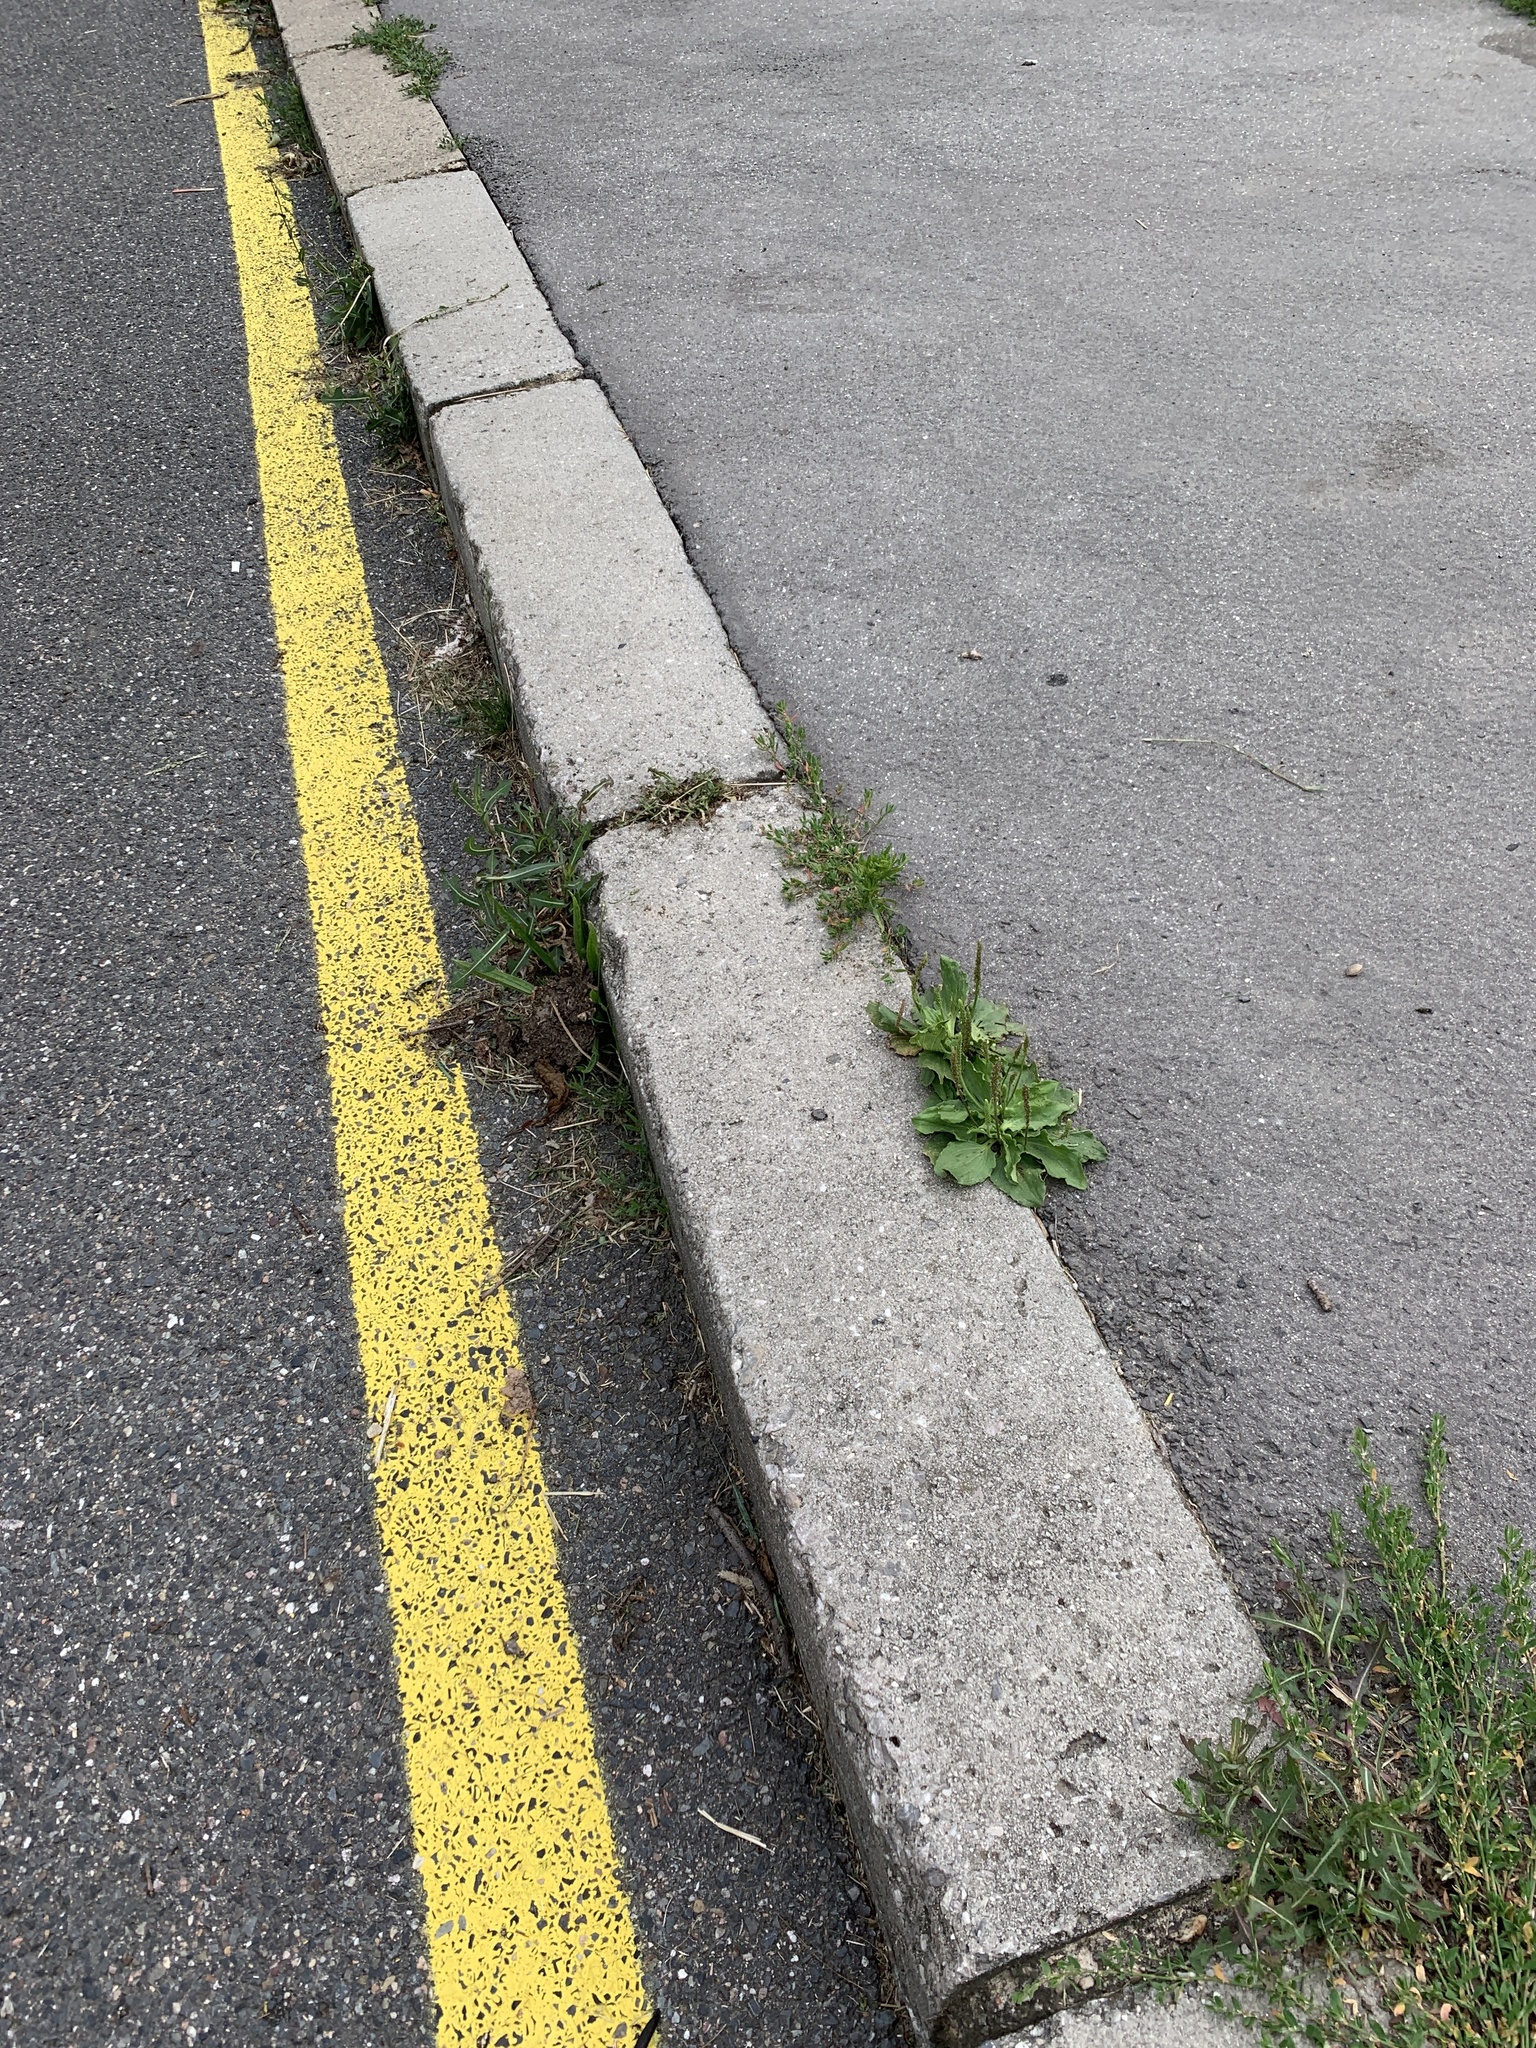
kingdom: Plantae
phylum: Tracheophyta
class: Magnoliopsida
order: Lamiales
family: Plantaginaceae
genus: Plantago
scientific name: Plantago major
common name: Common plantain
